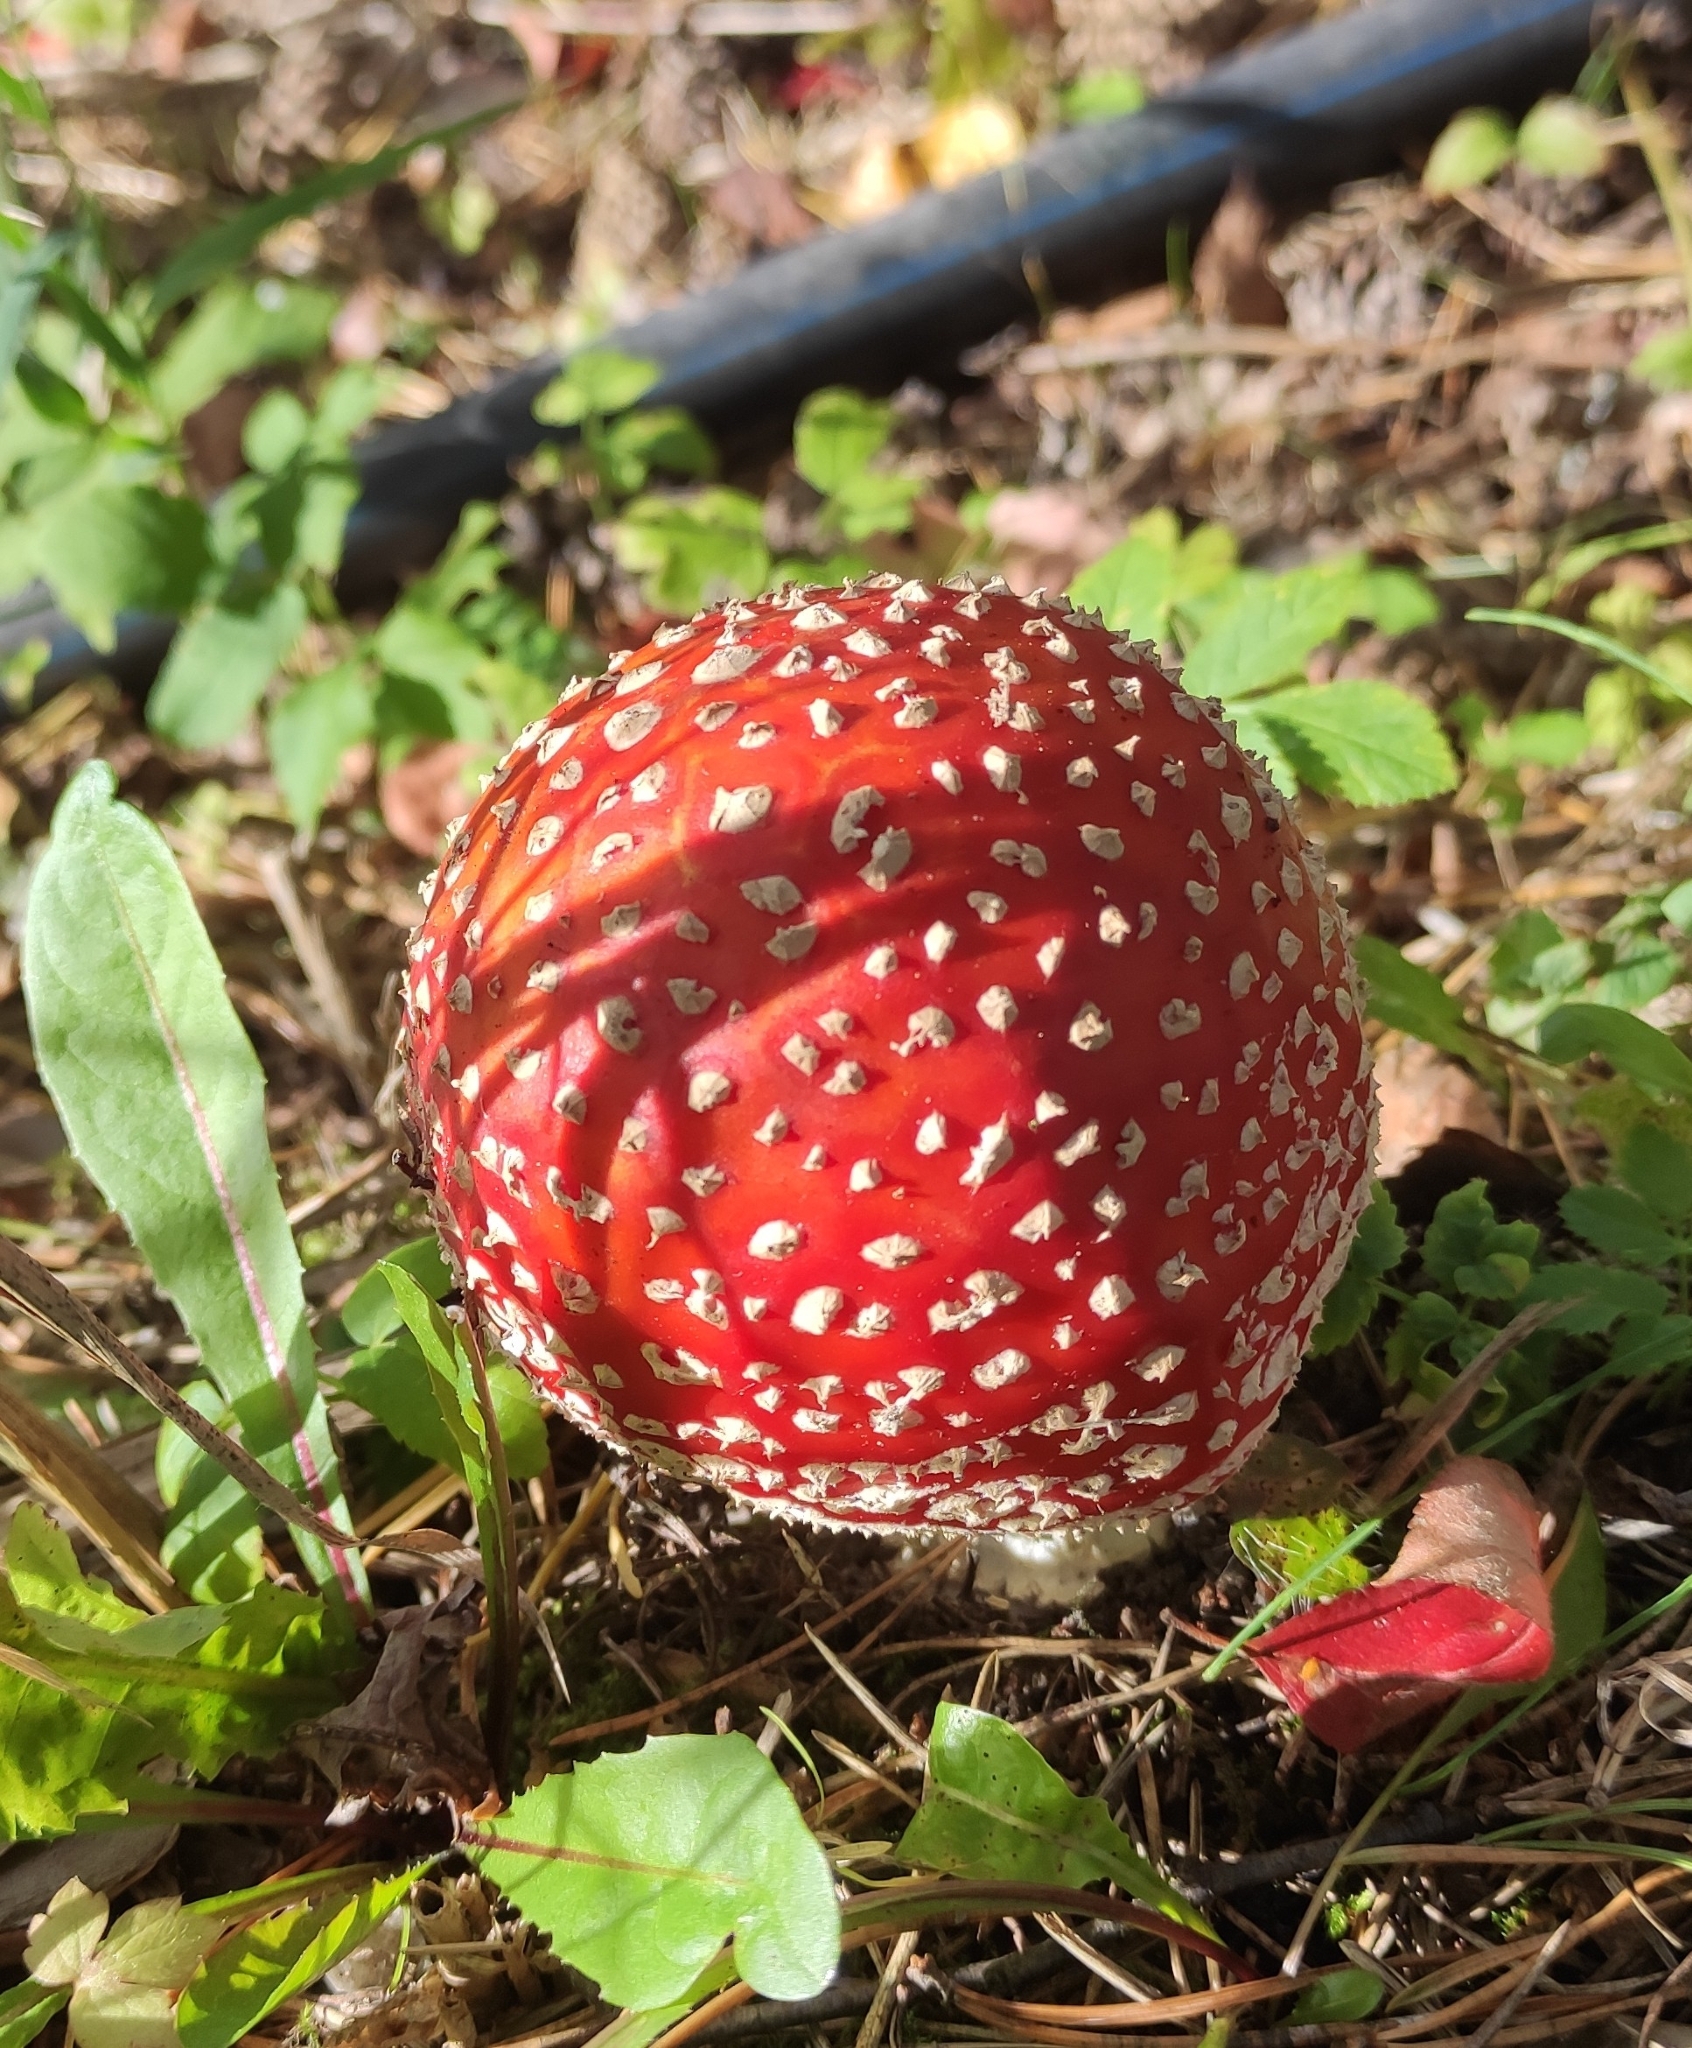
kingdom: Fungi
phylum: Basidiomycota
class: Agaricomycetes
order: Agaricales
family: Amanitaceae
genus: Amanita
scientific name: Amanita muscaria
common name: Fly agaric
